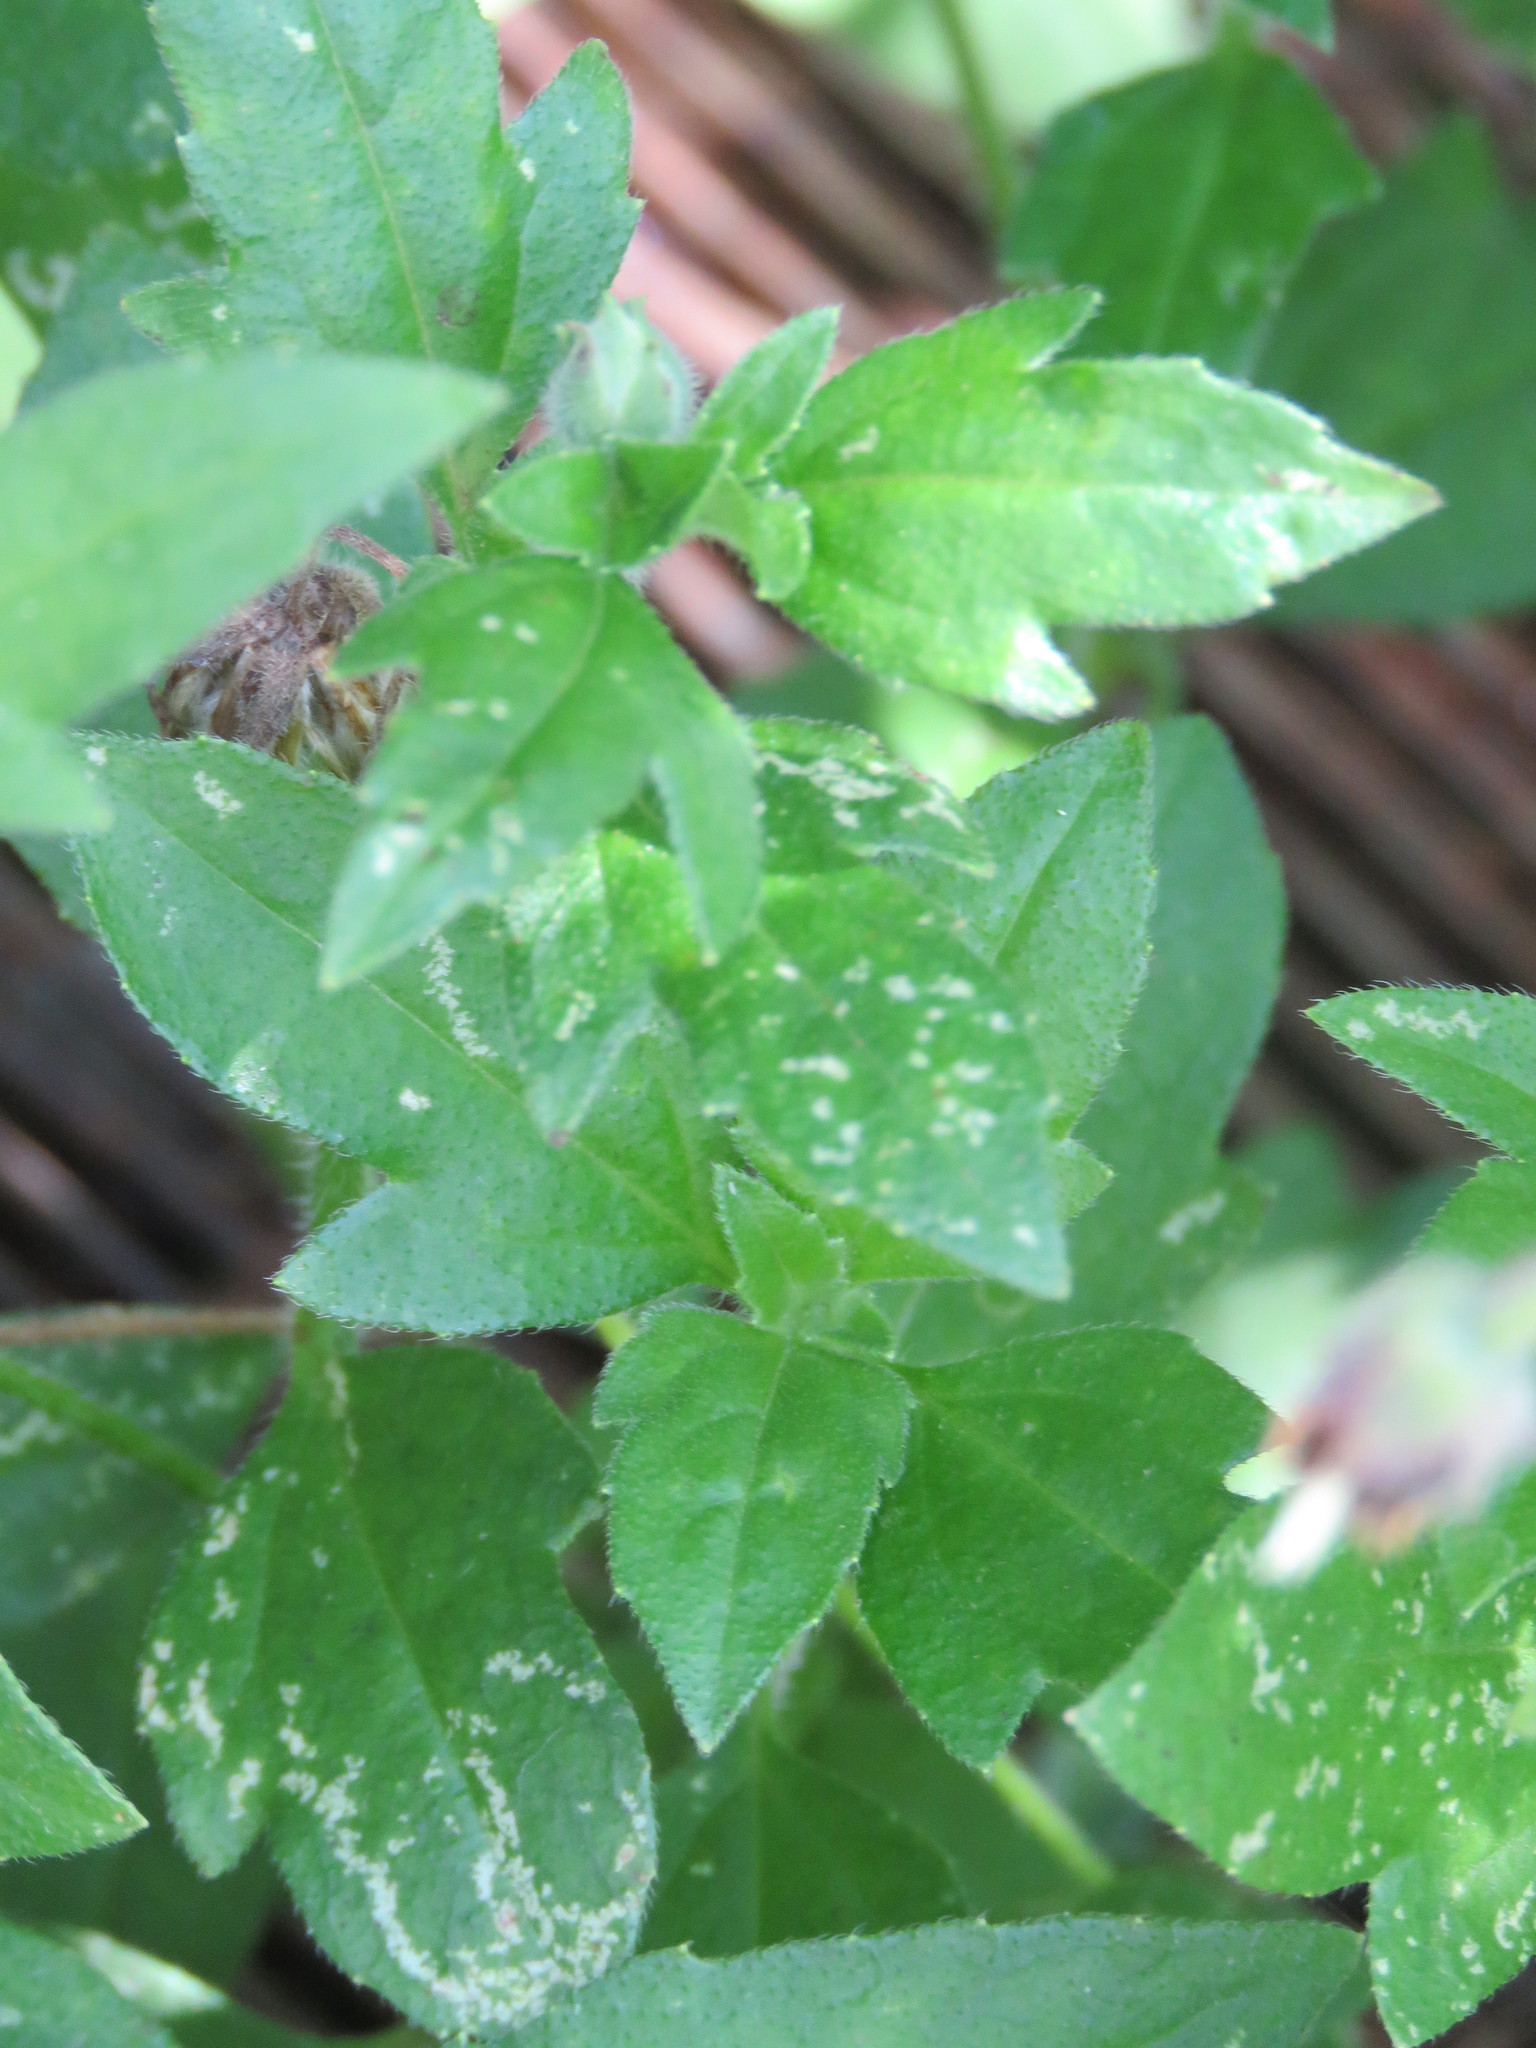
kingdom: Plantae
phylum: Tracheophyta
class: Magnoliopsida
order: Asterales
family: Asteraceae
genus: Tridax
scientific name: Tridax procumbens
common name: Coatbuttons
